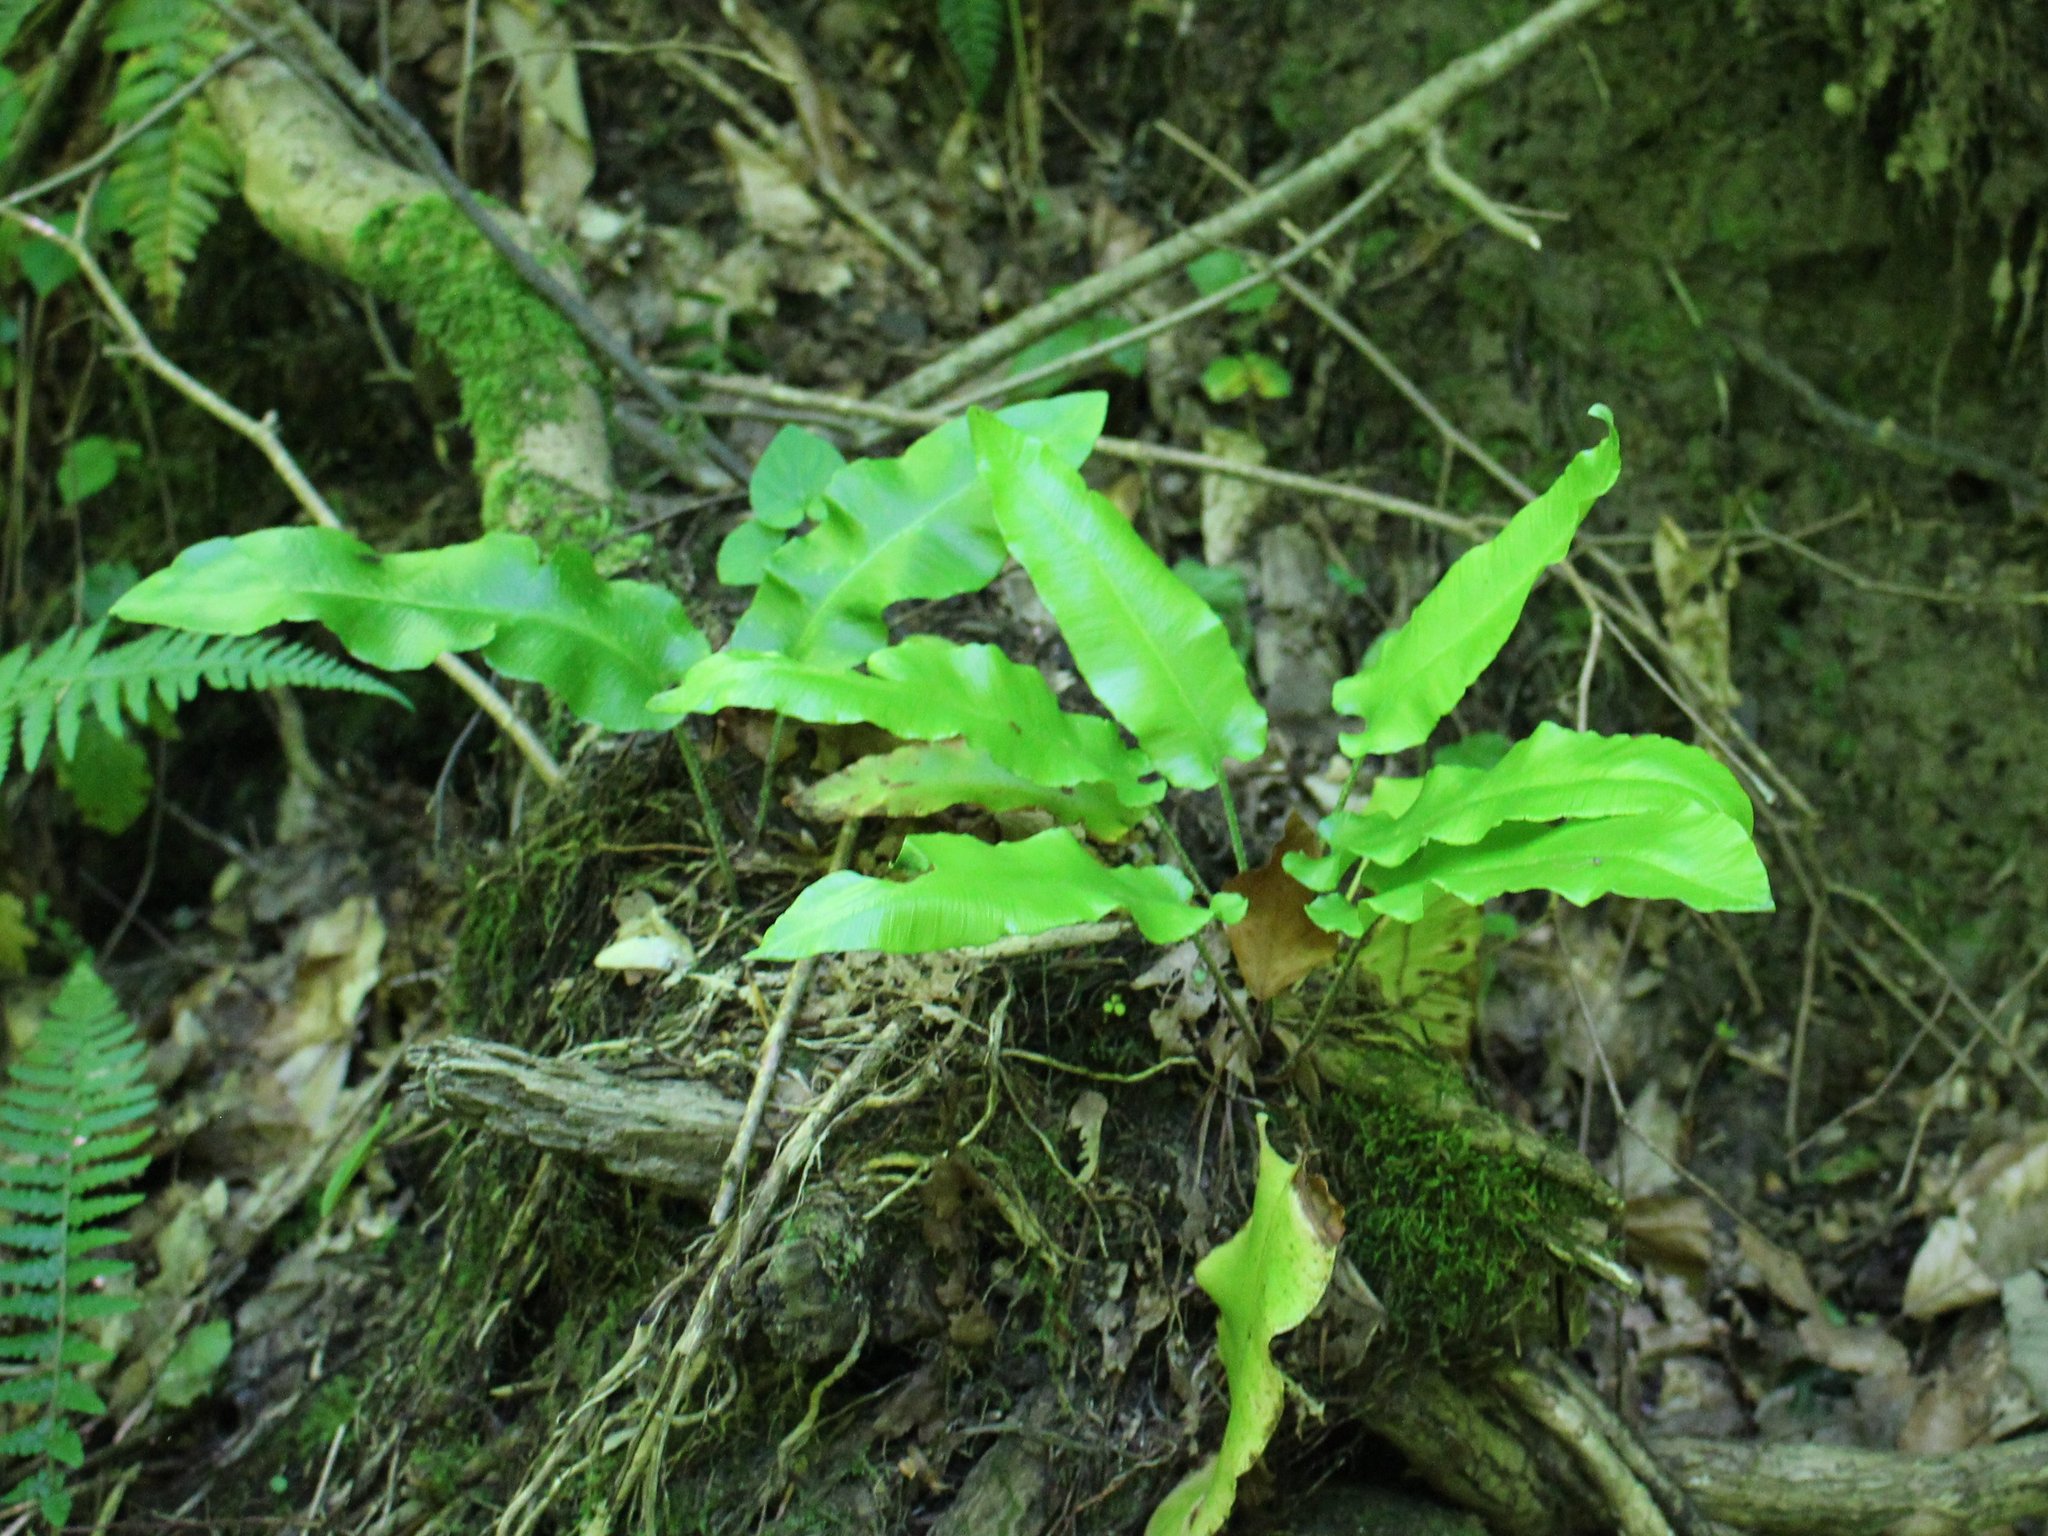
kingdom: Plantae
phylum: Tracheophyta
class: Polypodiopsida
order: Polypodiales
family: Aspleniaceae
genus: Asplenium
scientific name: Asplenium scolopendrium
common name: Hart's-tongue fern
